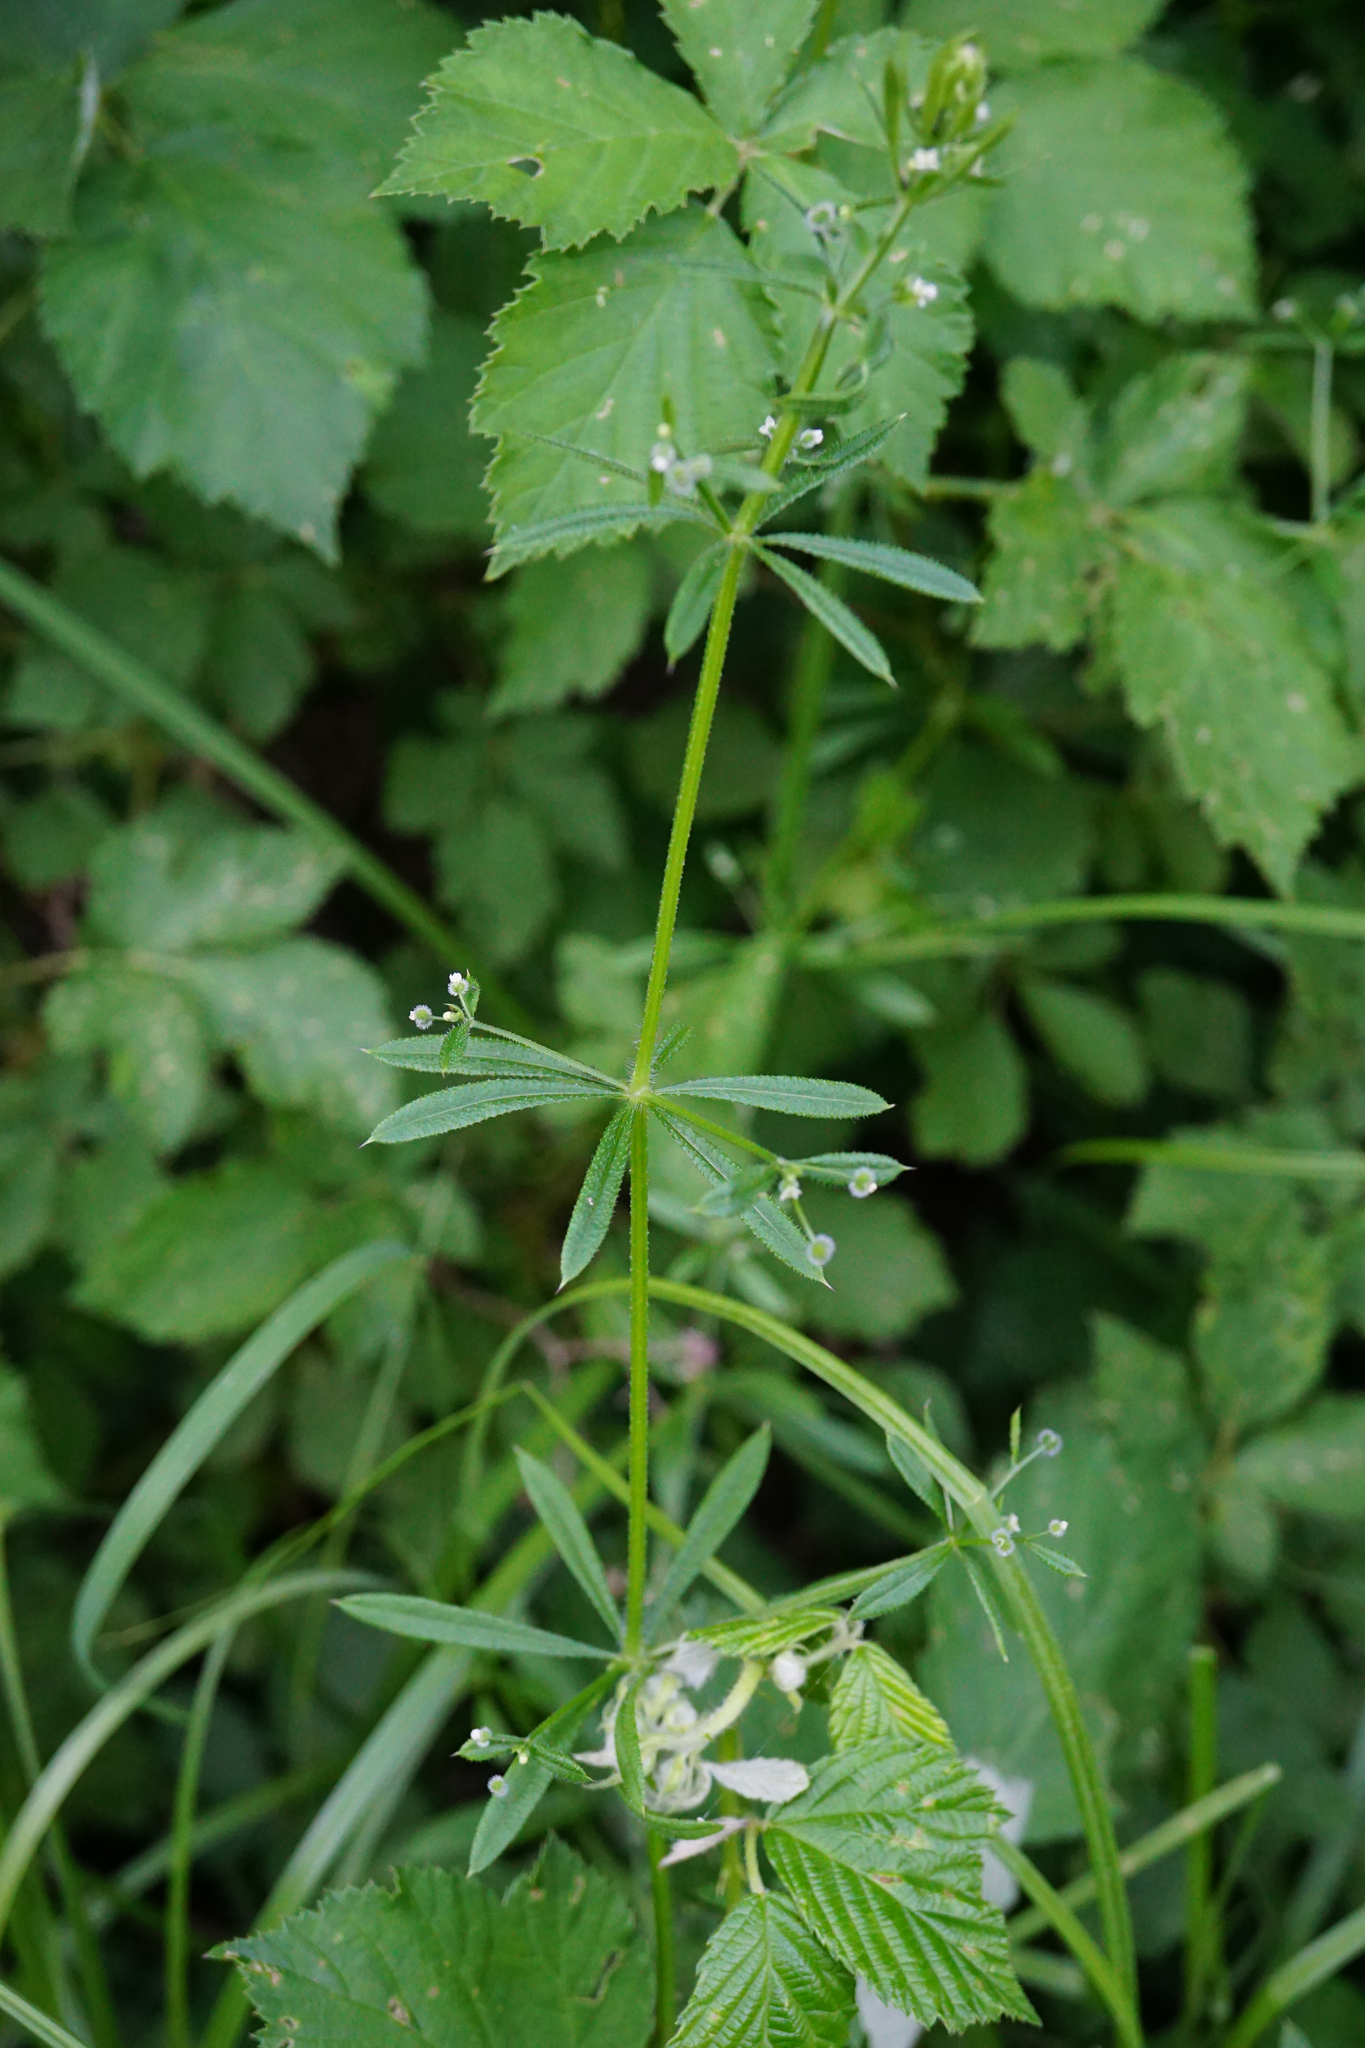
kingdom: Plantae
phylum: Tracheophyta
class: Magnoliopsida
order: Gentianales
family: Rubiaceae
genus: Galium
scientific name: Galium aparine
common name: Cleavers
